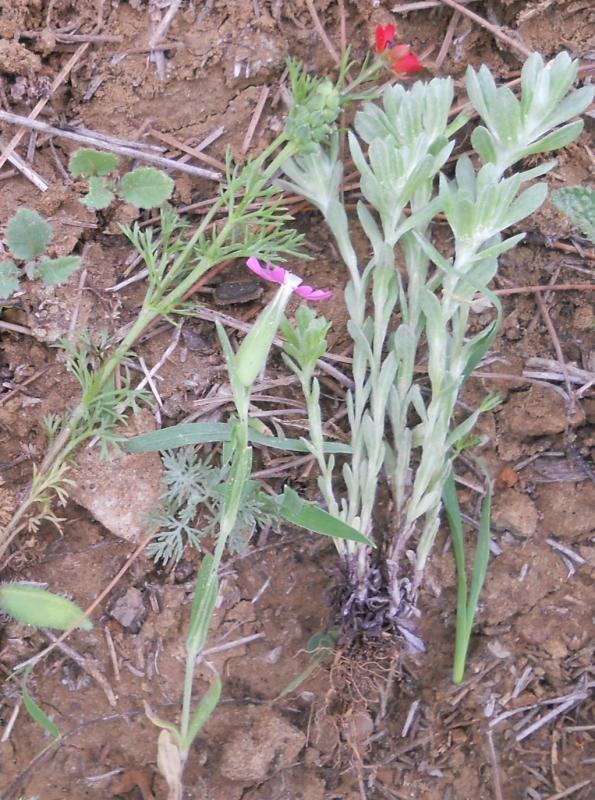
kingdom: Plantae
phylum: Tracheophyta
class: Magnoliopsida
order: Ranunculales
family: Ranunculaceae
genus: Adonis
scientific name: Adonis annua
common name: Pheasant's-eye
